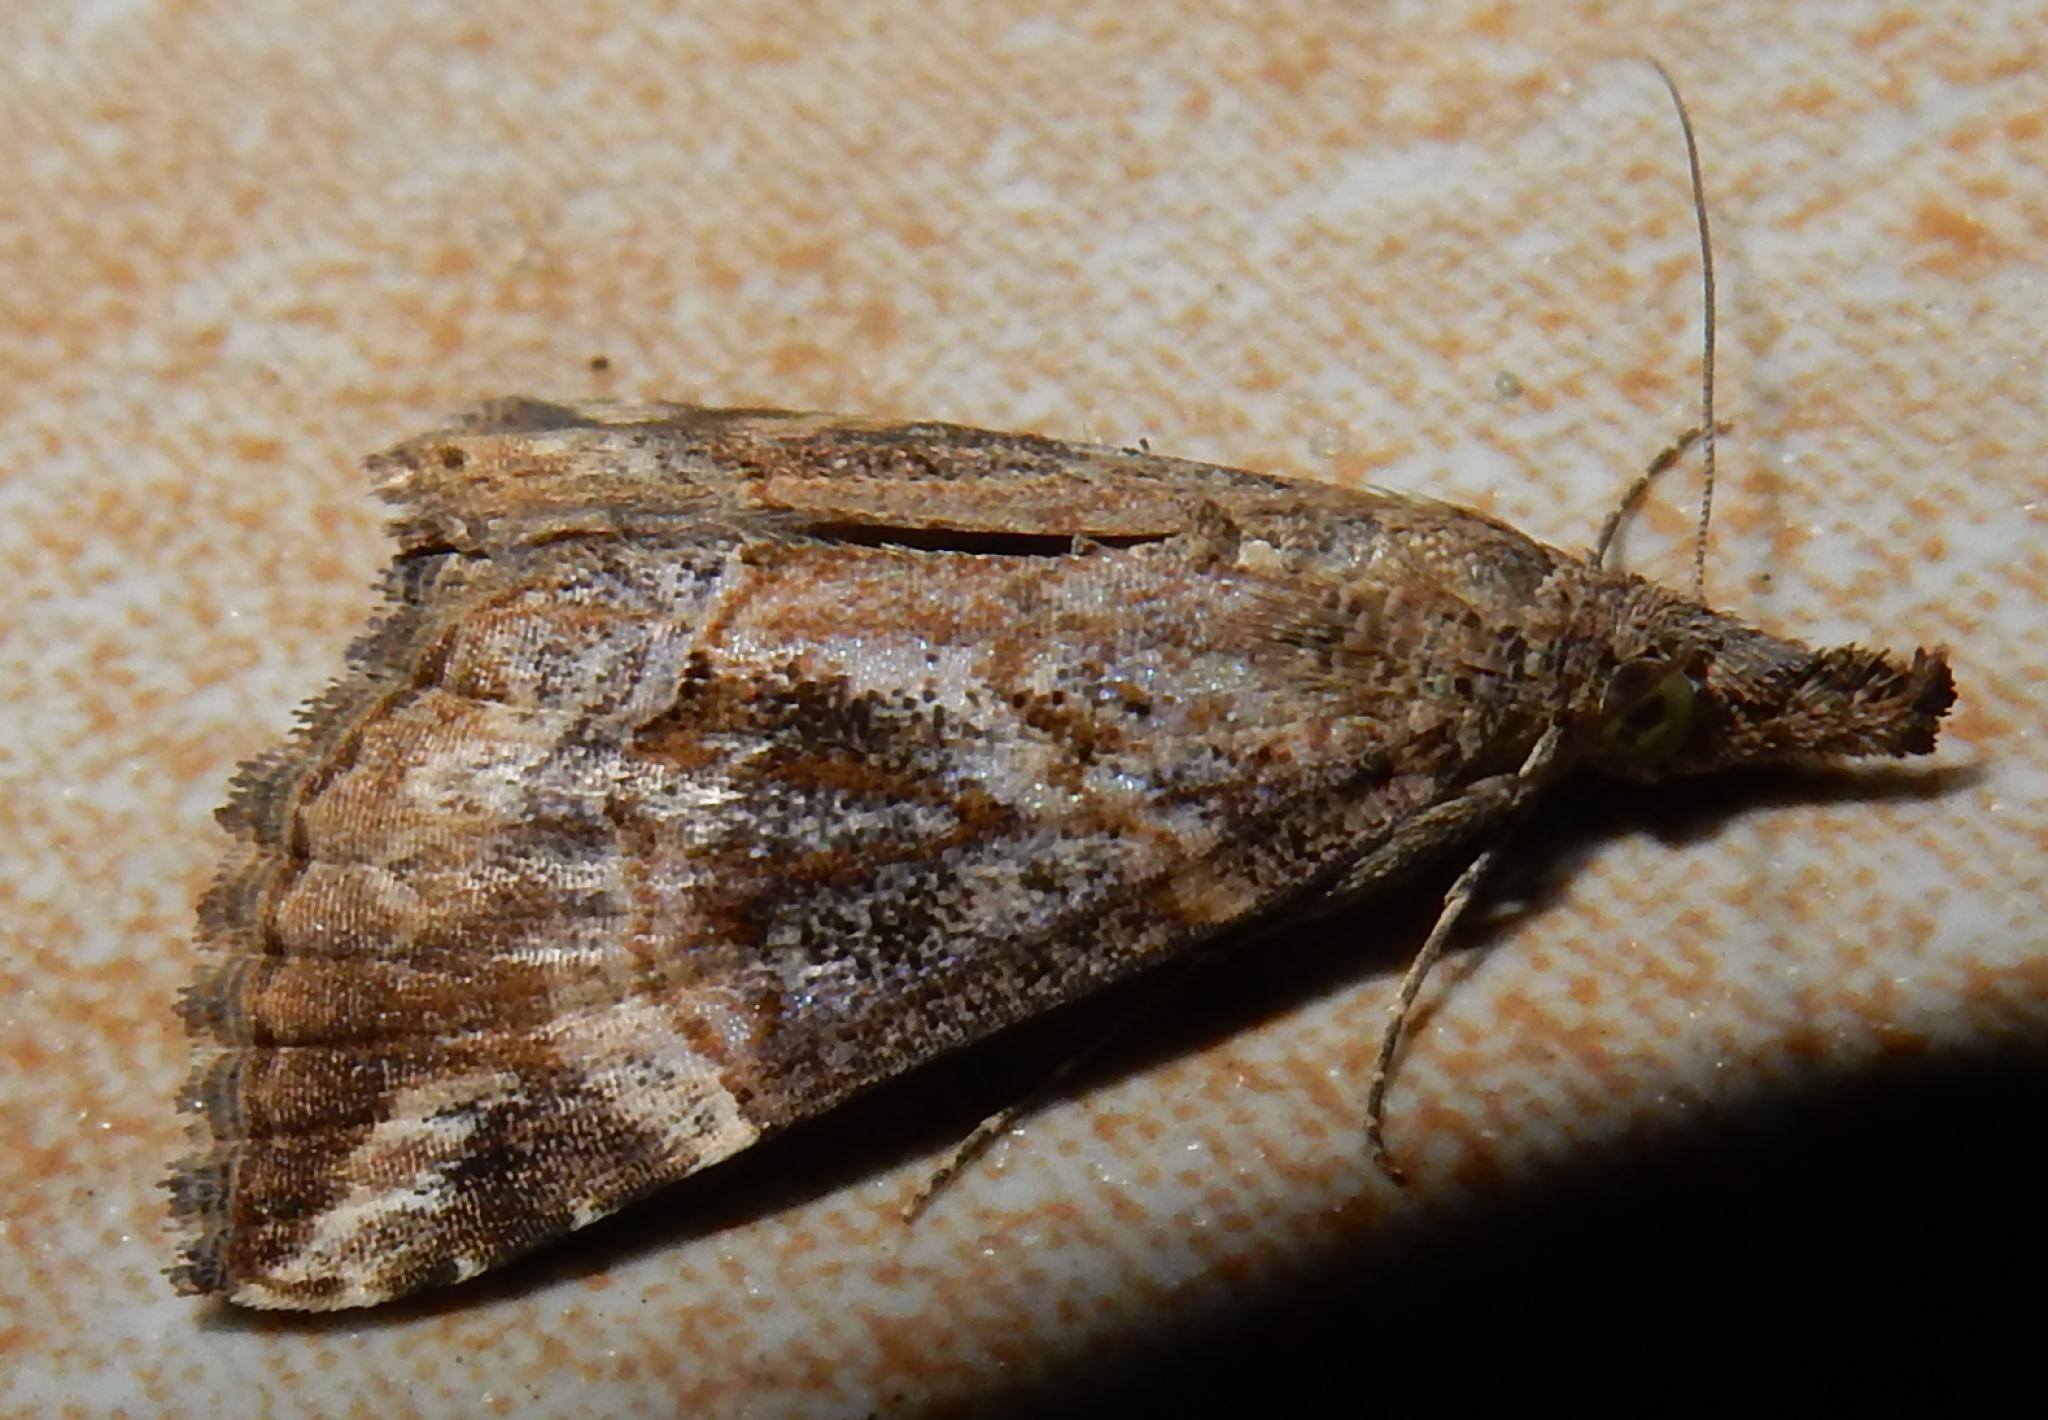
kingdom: Animalia
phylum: Arthropoda
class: Insecta
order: Lepidoptera
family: Erebidae
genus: Hypena
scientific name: Hypena commixtalis
